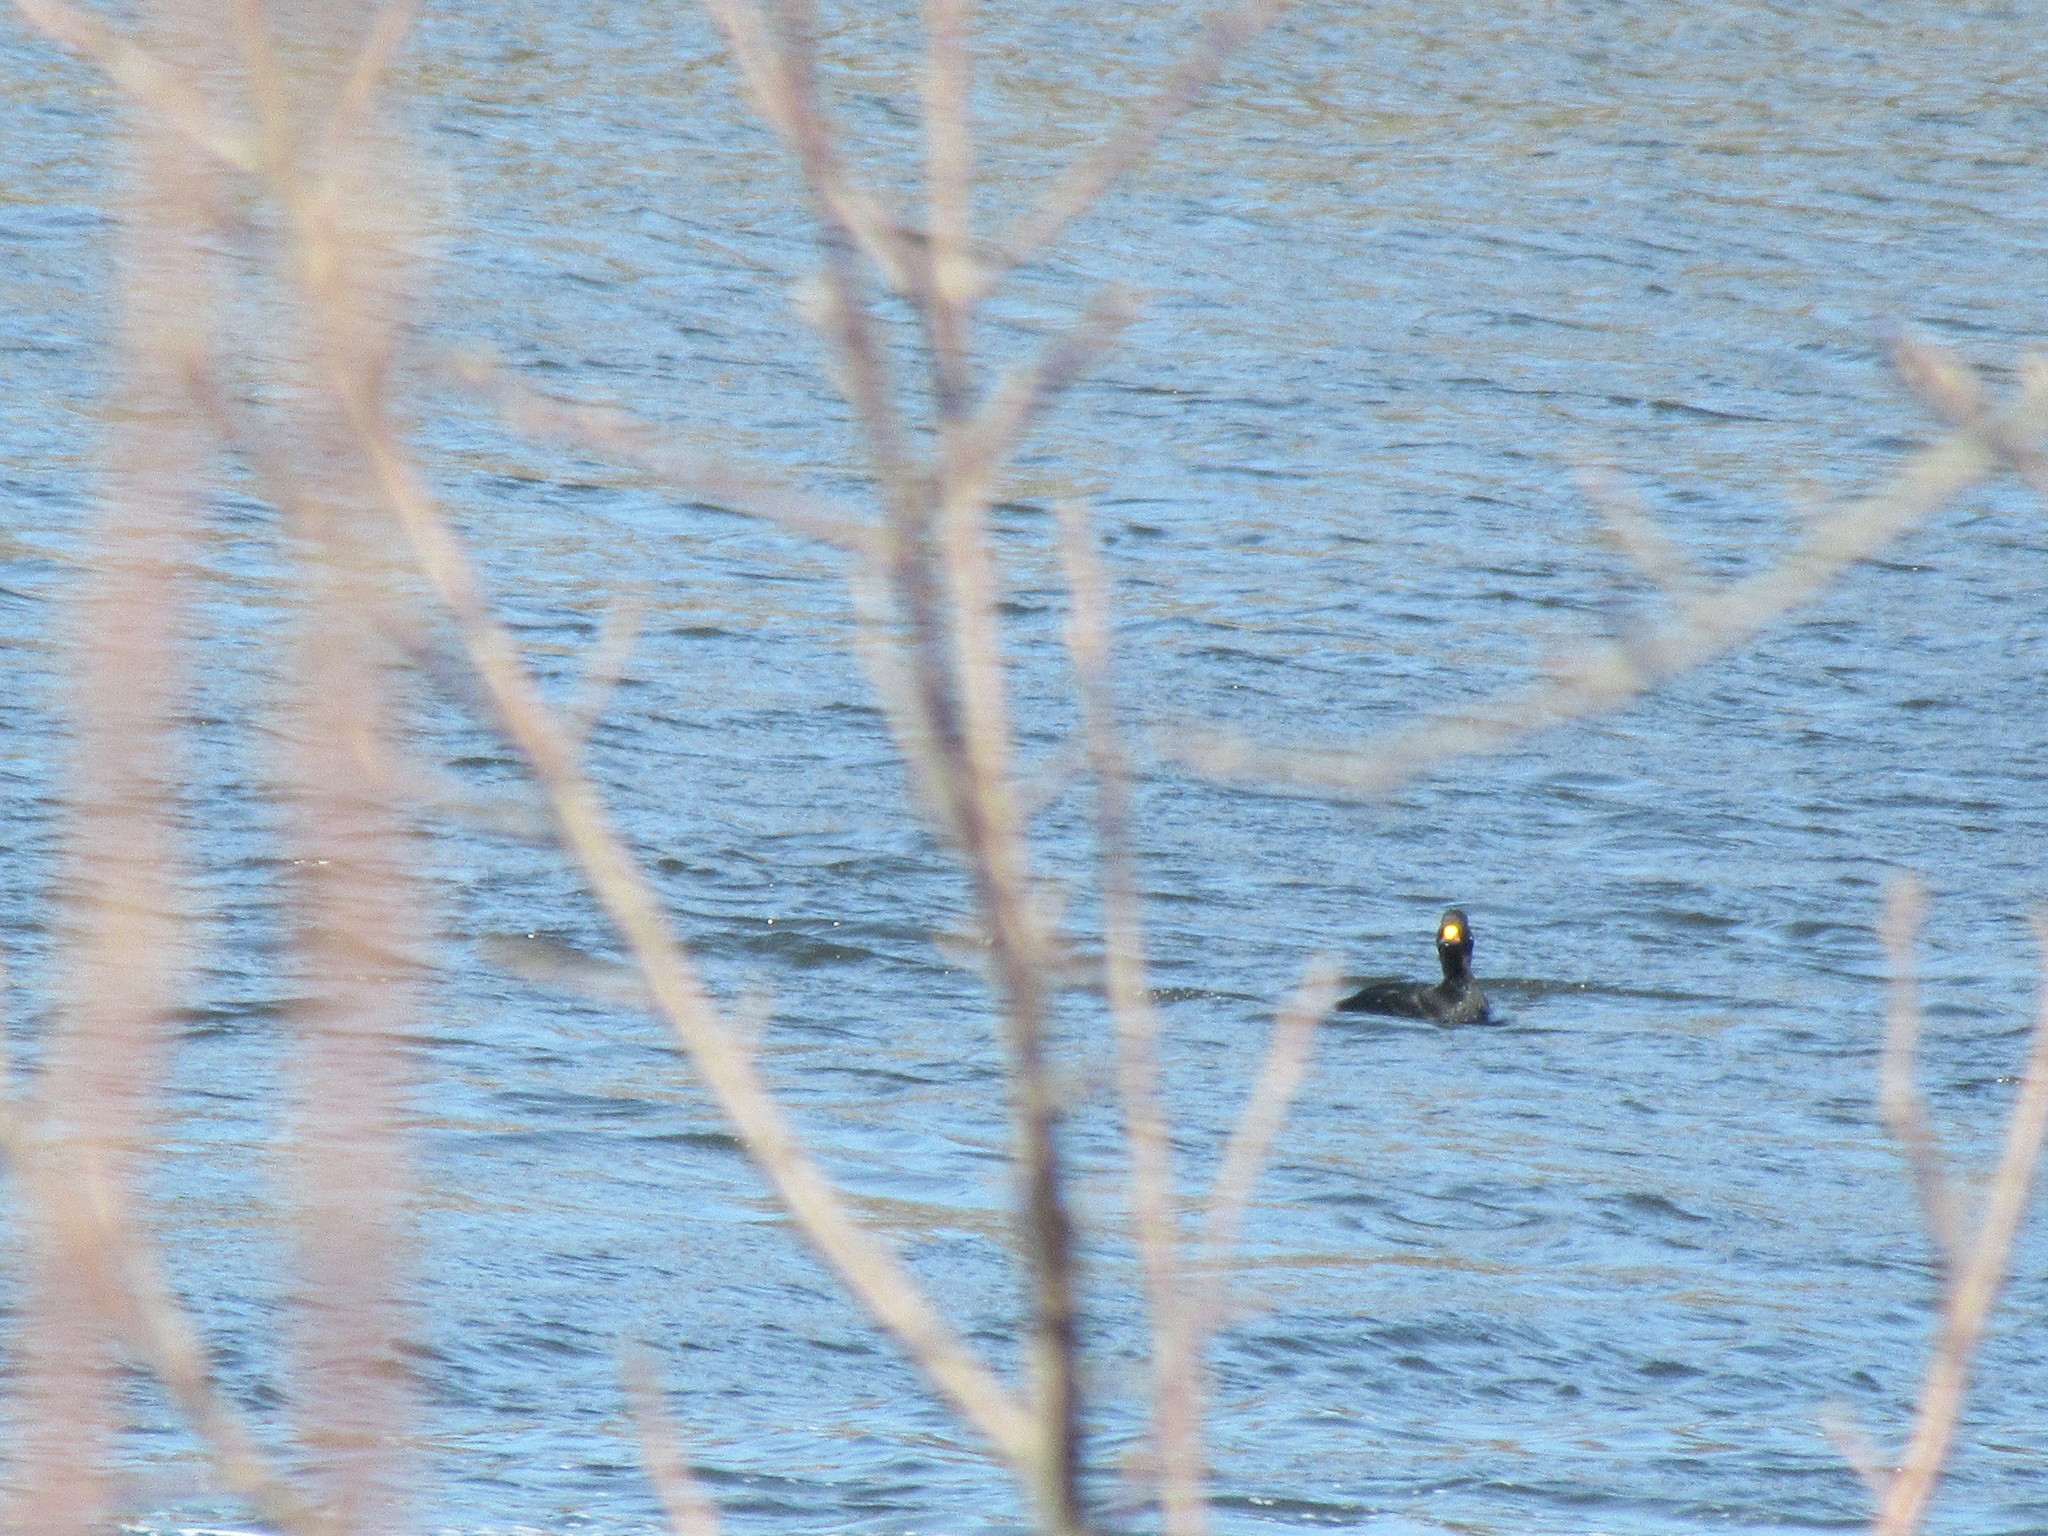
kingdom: Animalia
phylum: Chordata
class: Aves
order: Anseriformes
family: Anatidae
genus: Melanitta
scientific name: Melanitta americana
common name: Black scoter
